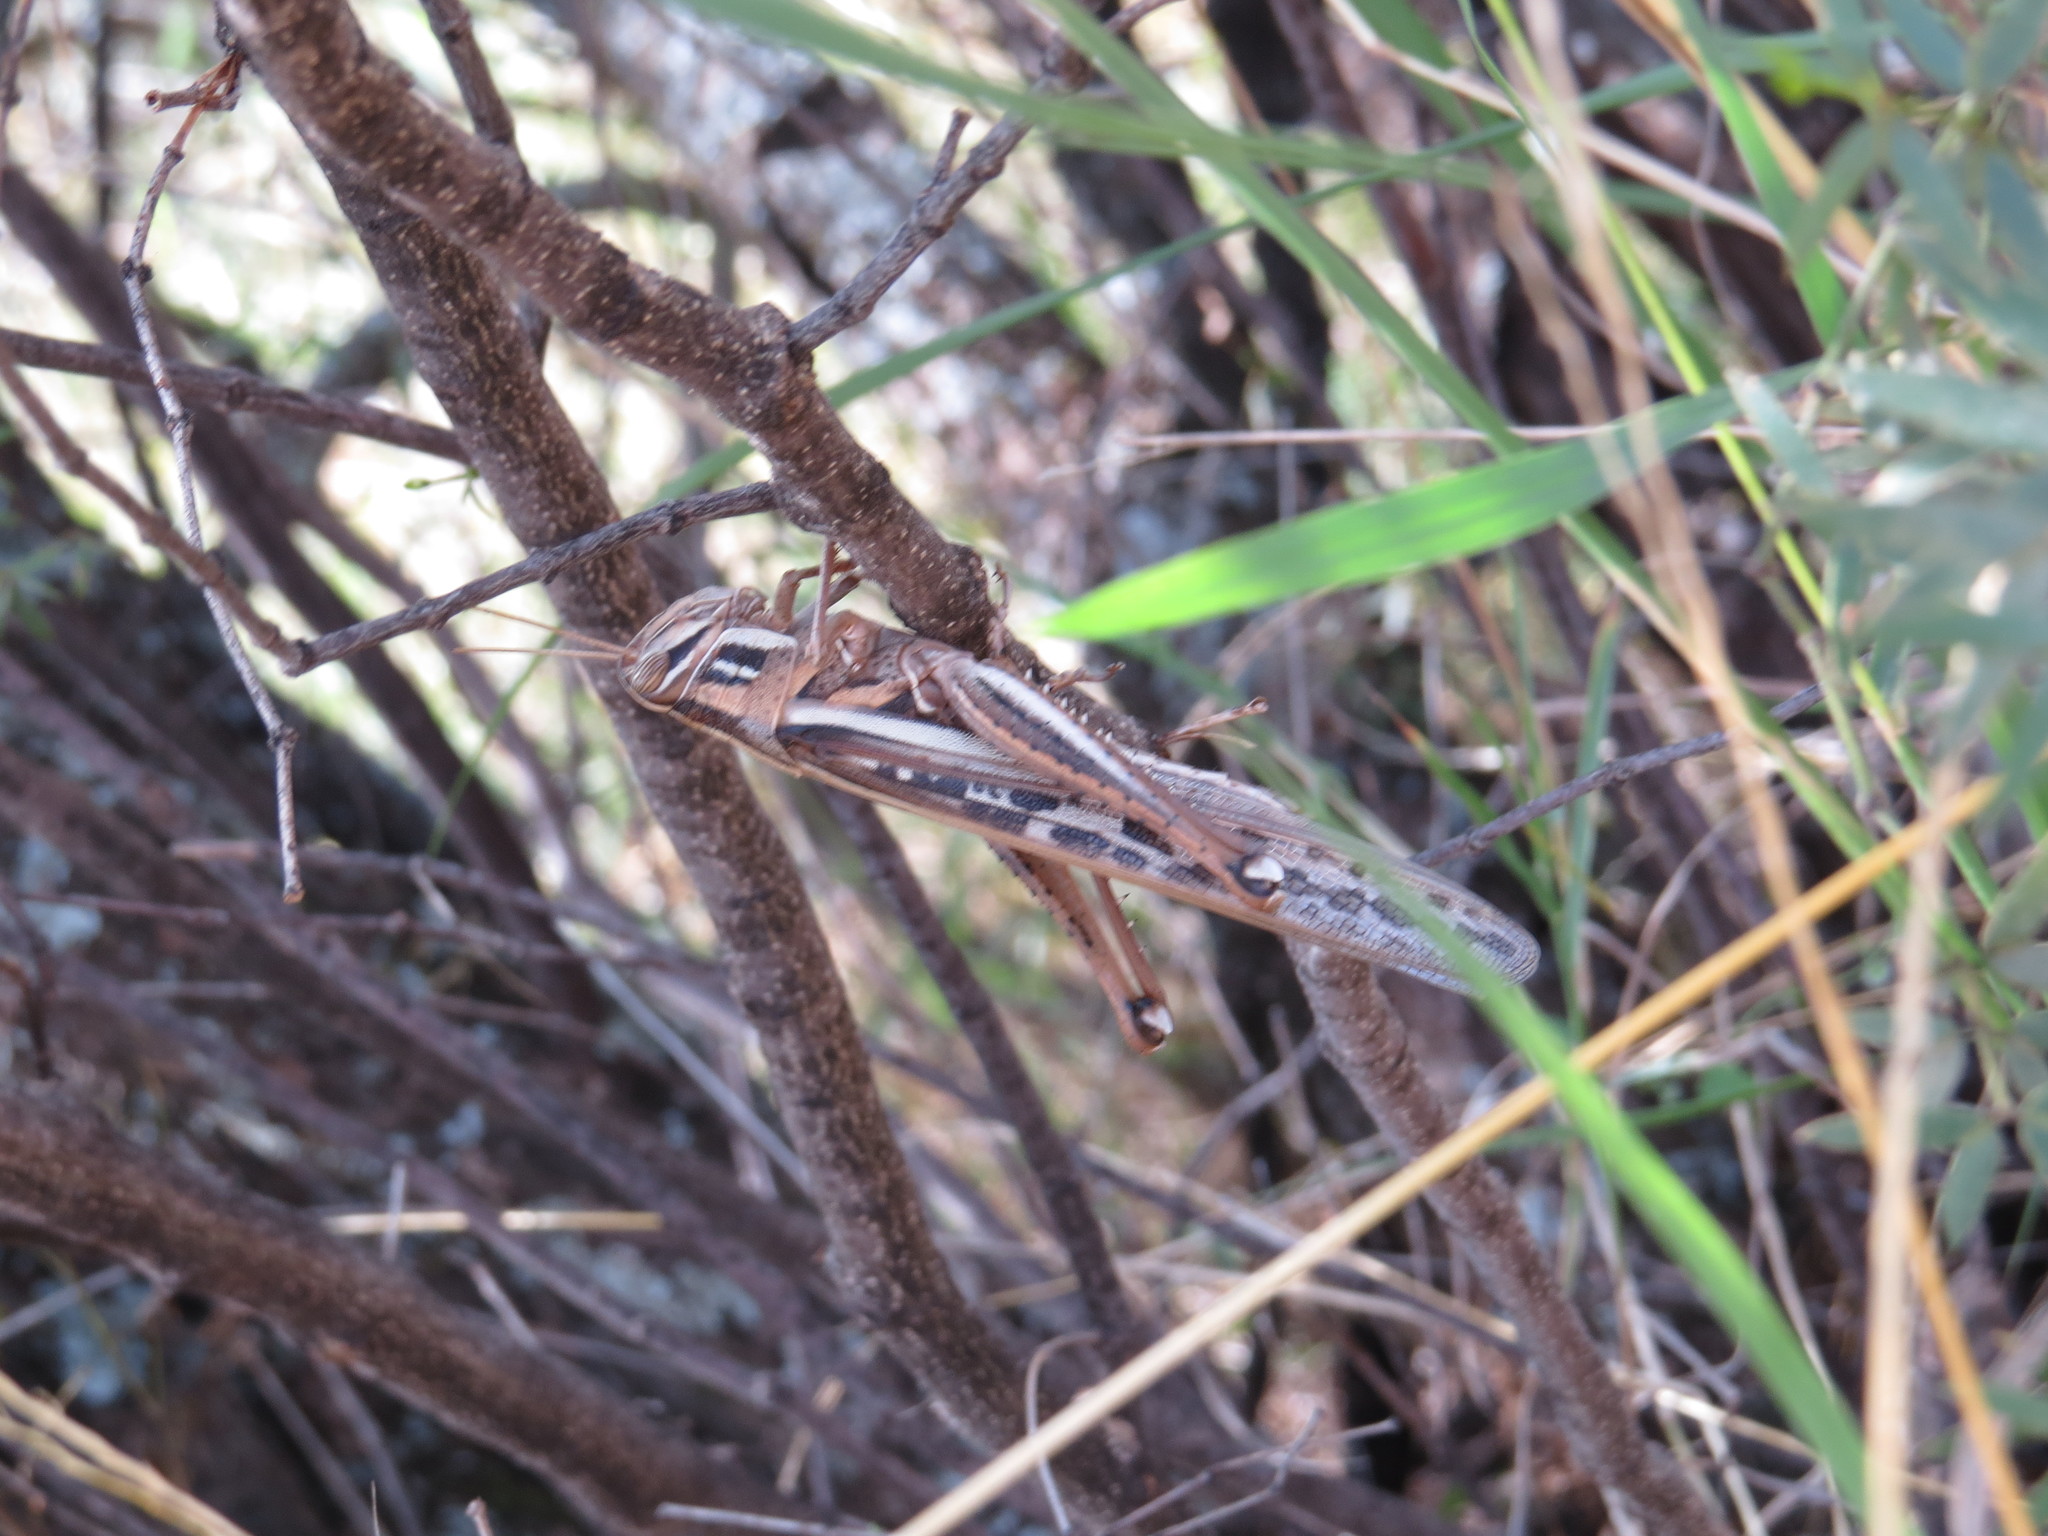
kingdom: Animalia
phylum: Arthropoda
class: Insecta
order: Orthoptera
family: Acrididae
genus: Schistocerca
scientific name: Schistocerca cancellata
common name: South american locust
